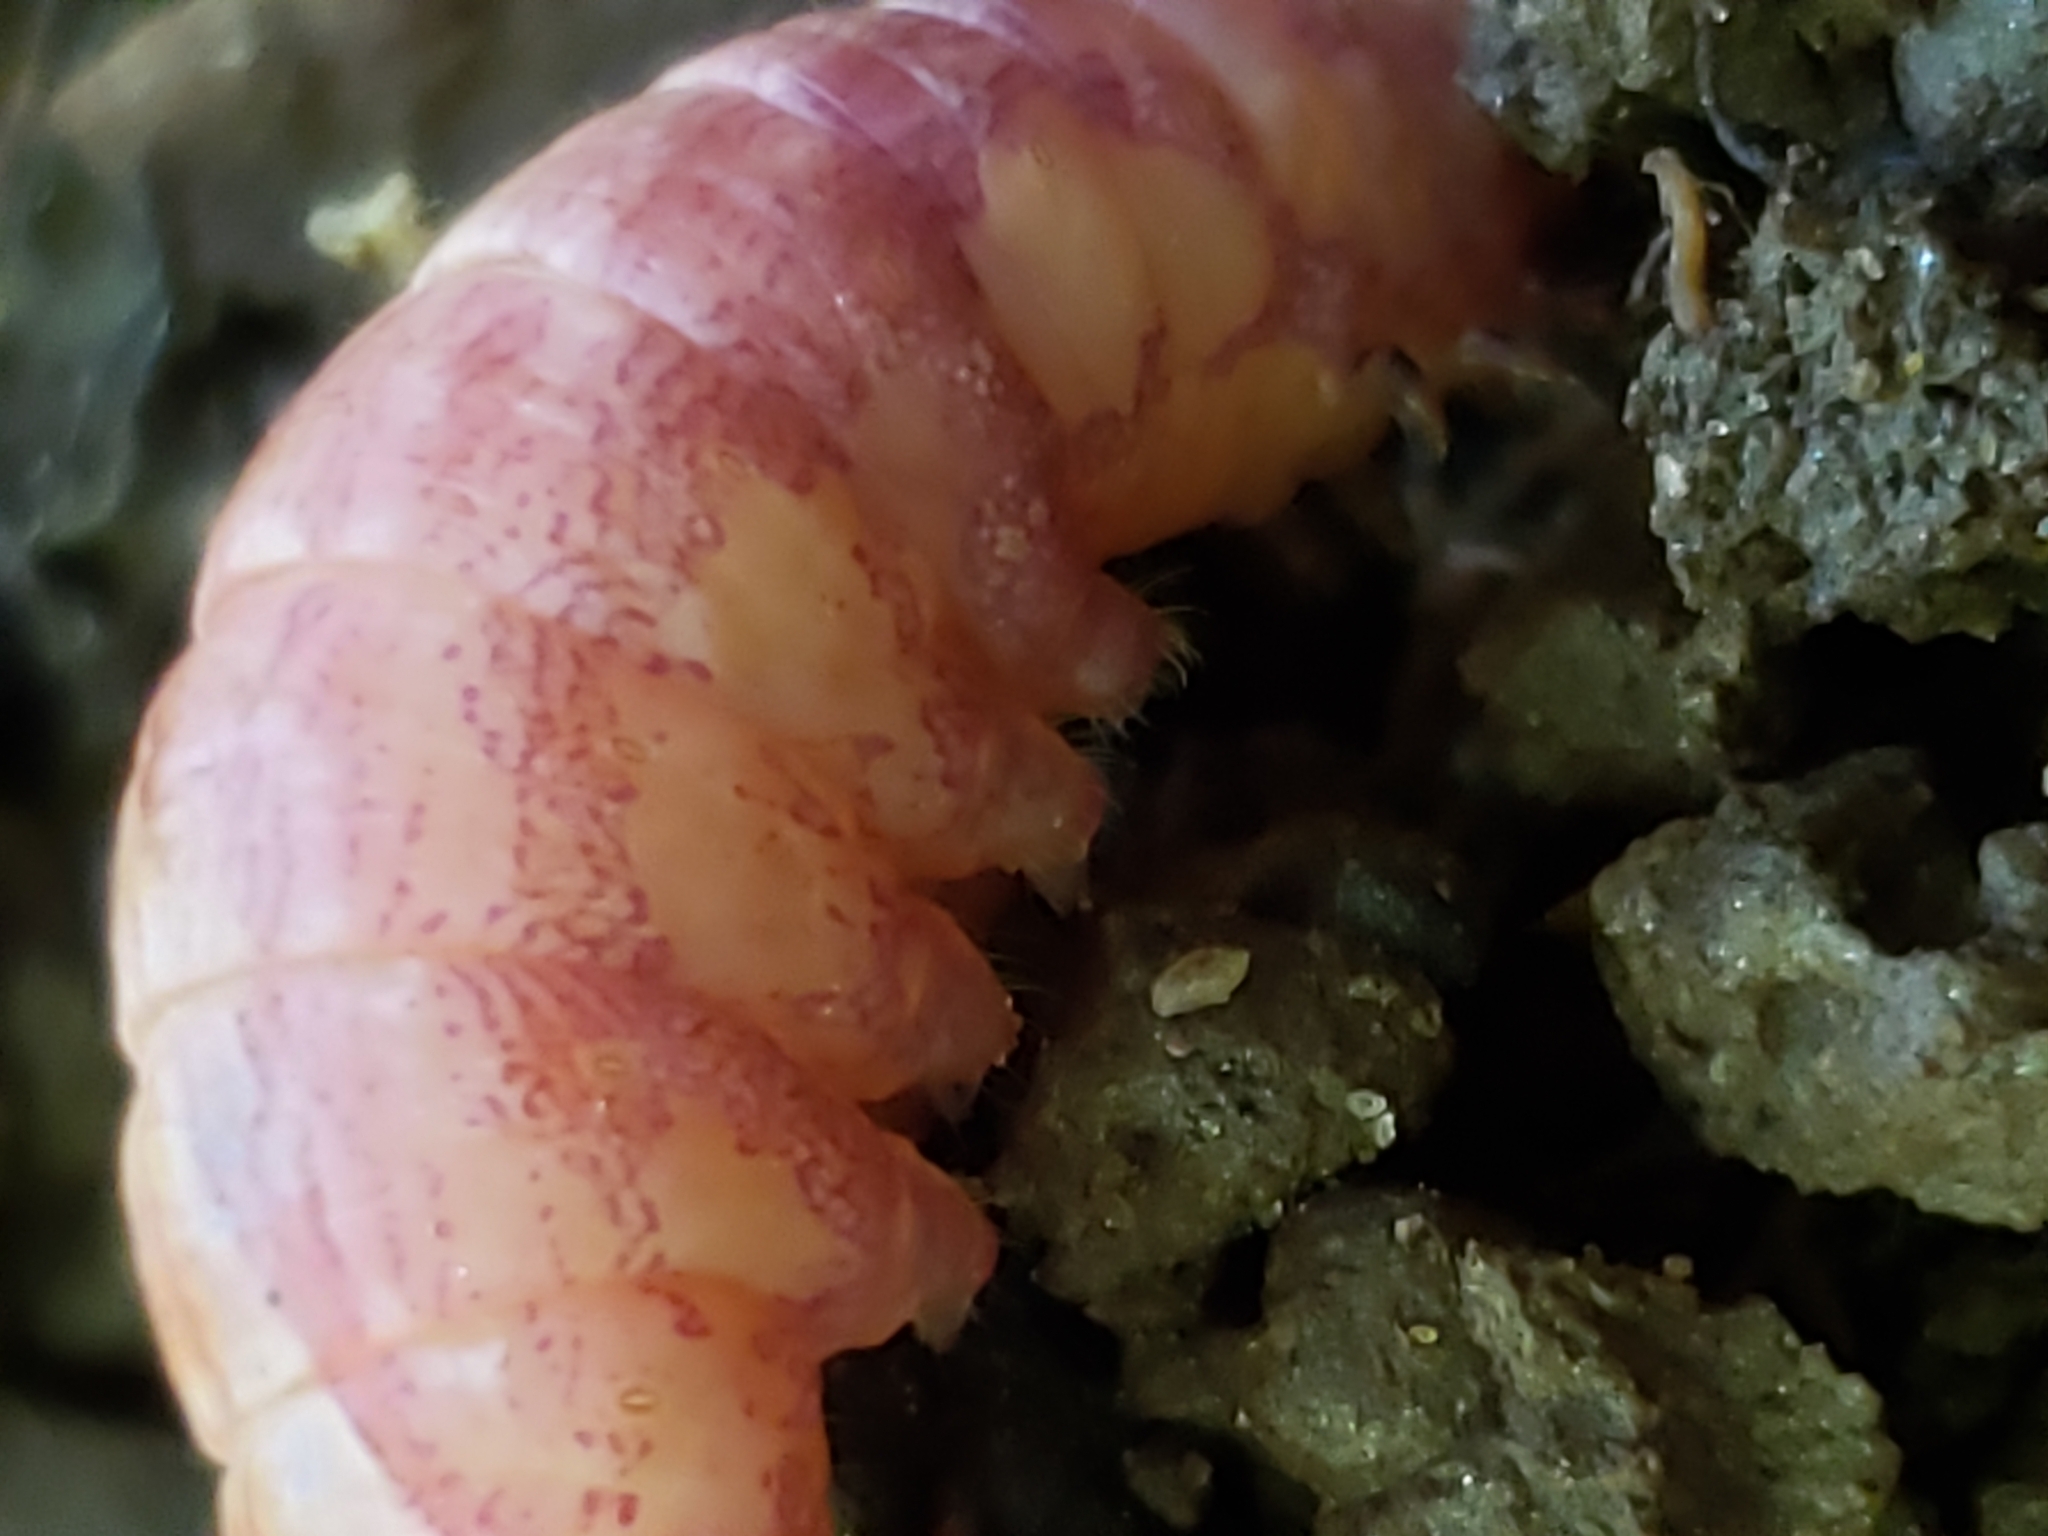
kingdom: Animalia
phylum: Arthropoda
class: Insecta
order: Lepidoptera
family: Notodontidae
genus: Disphragis
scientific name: Disphragis Cecrita biundata
